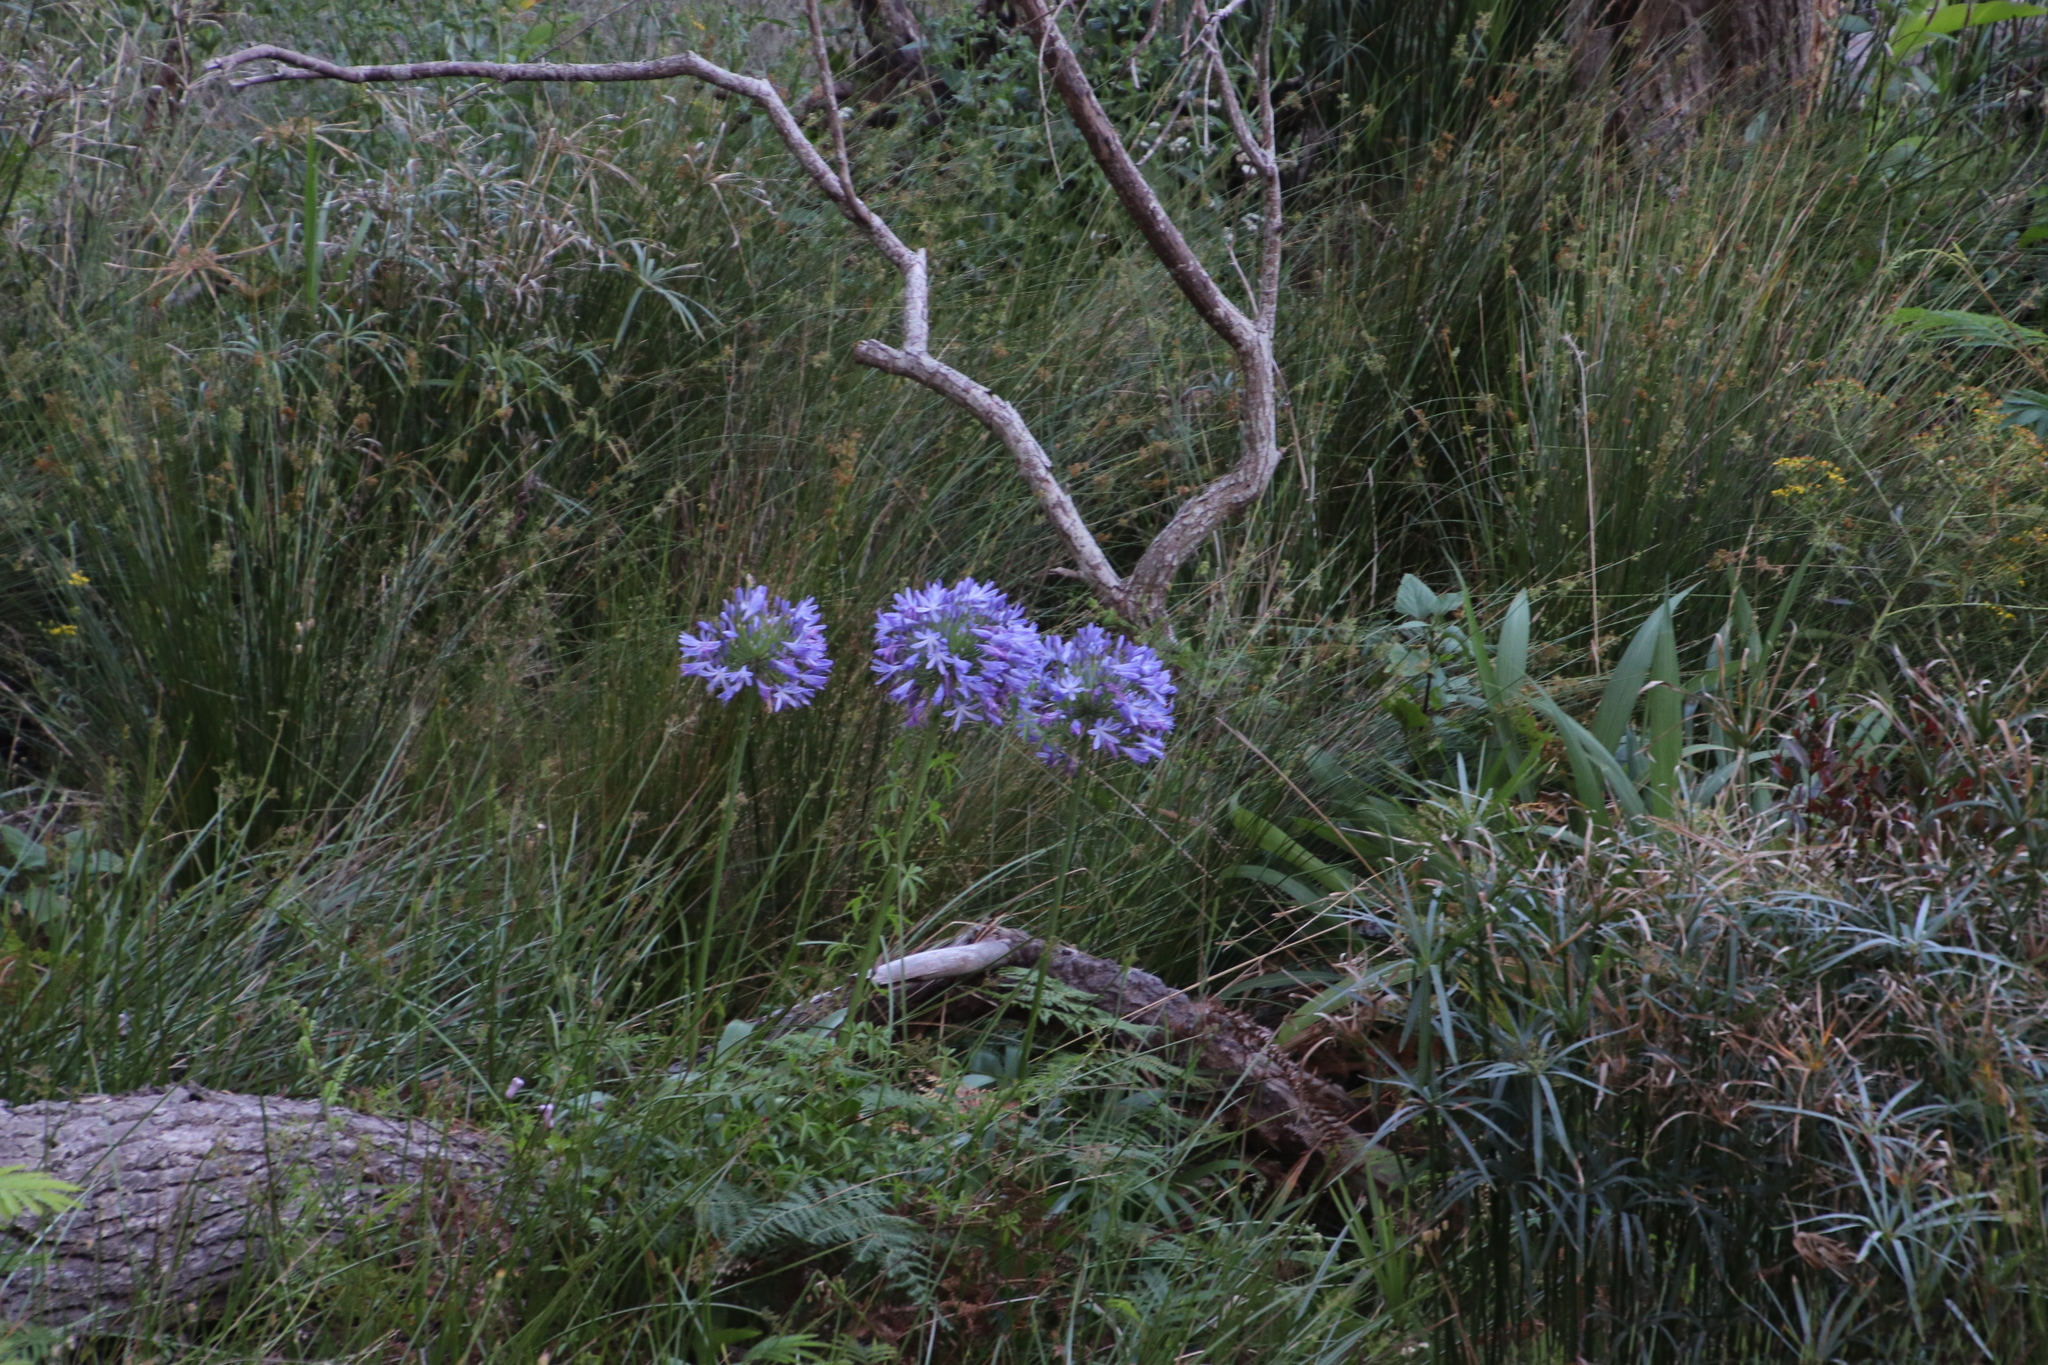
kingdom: Plantae
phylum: Tracheophyta
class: Liliopsida
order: Asparagales
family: Amaryllidaceae
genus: Agapanthus
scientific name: Agapanthus praecox
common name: African-lily
